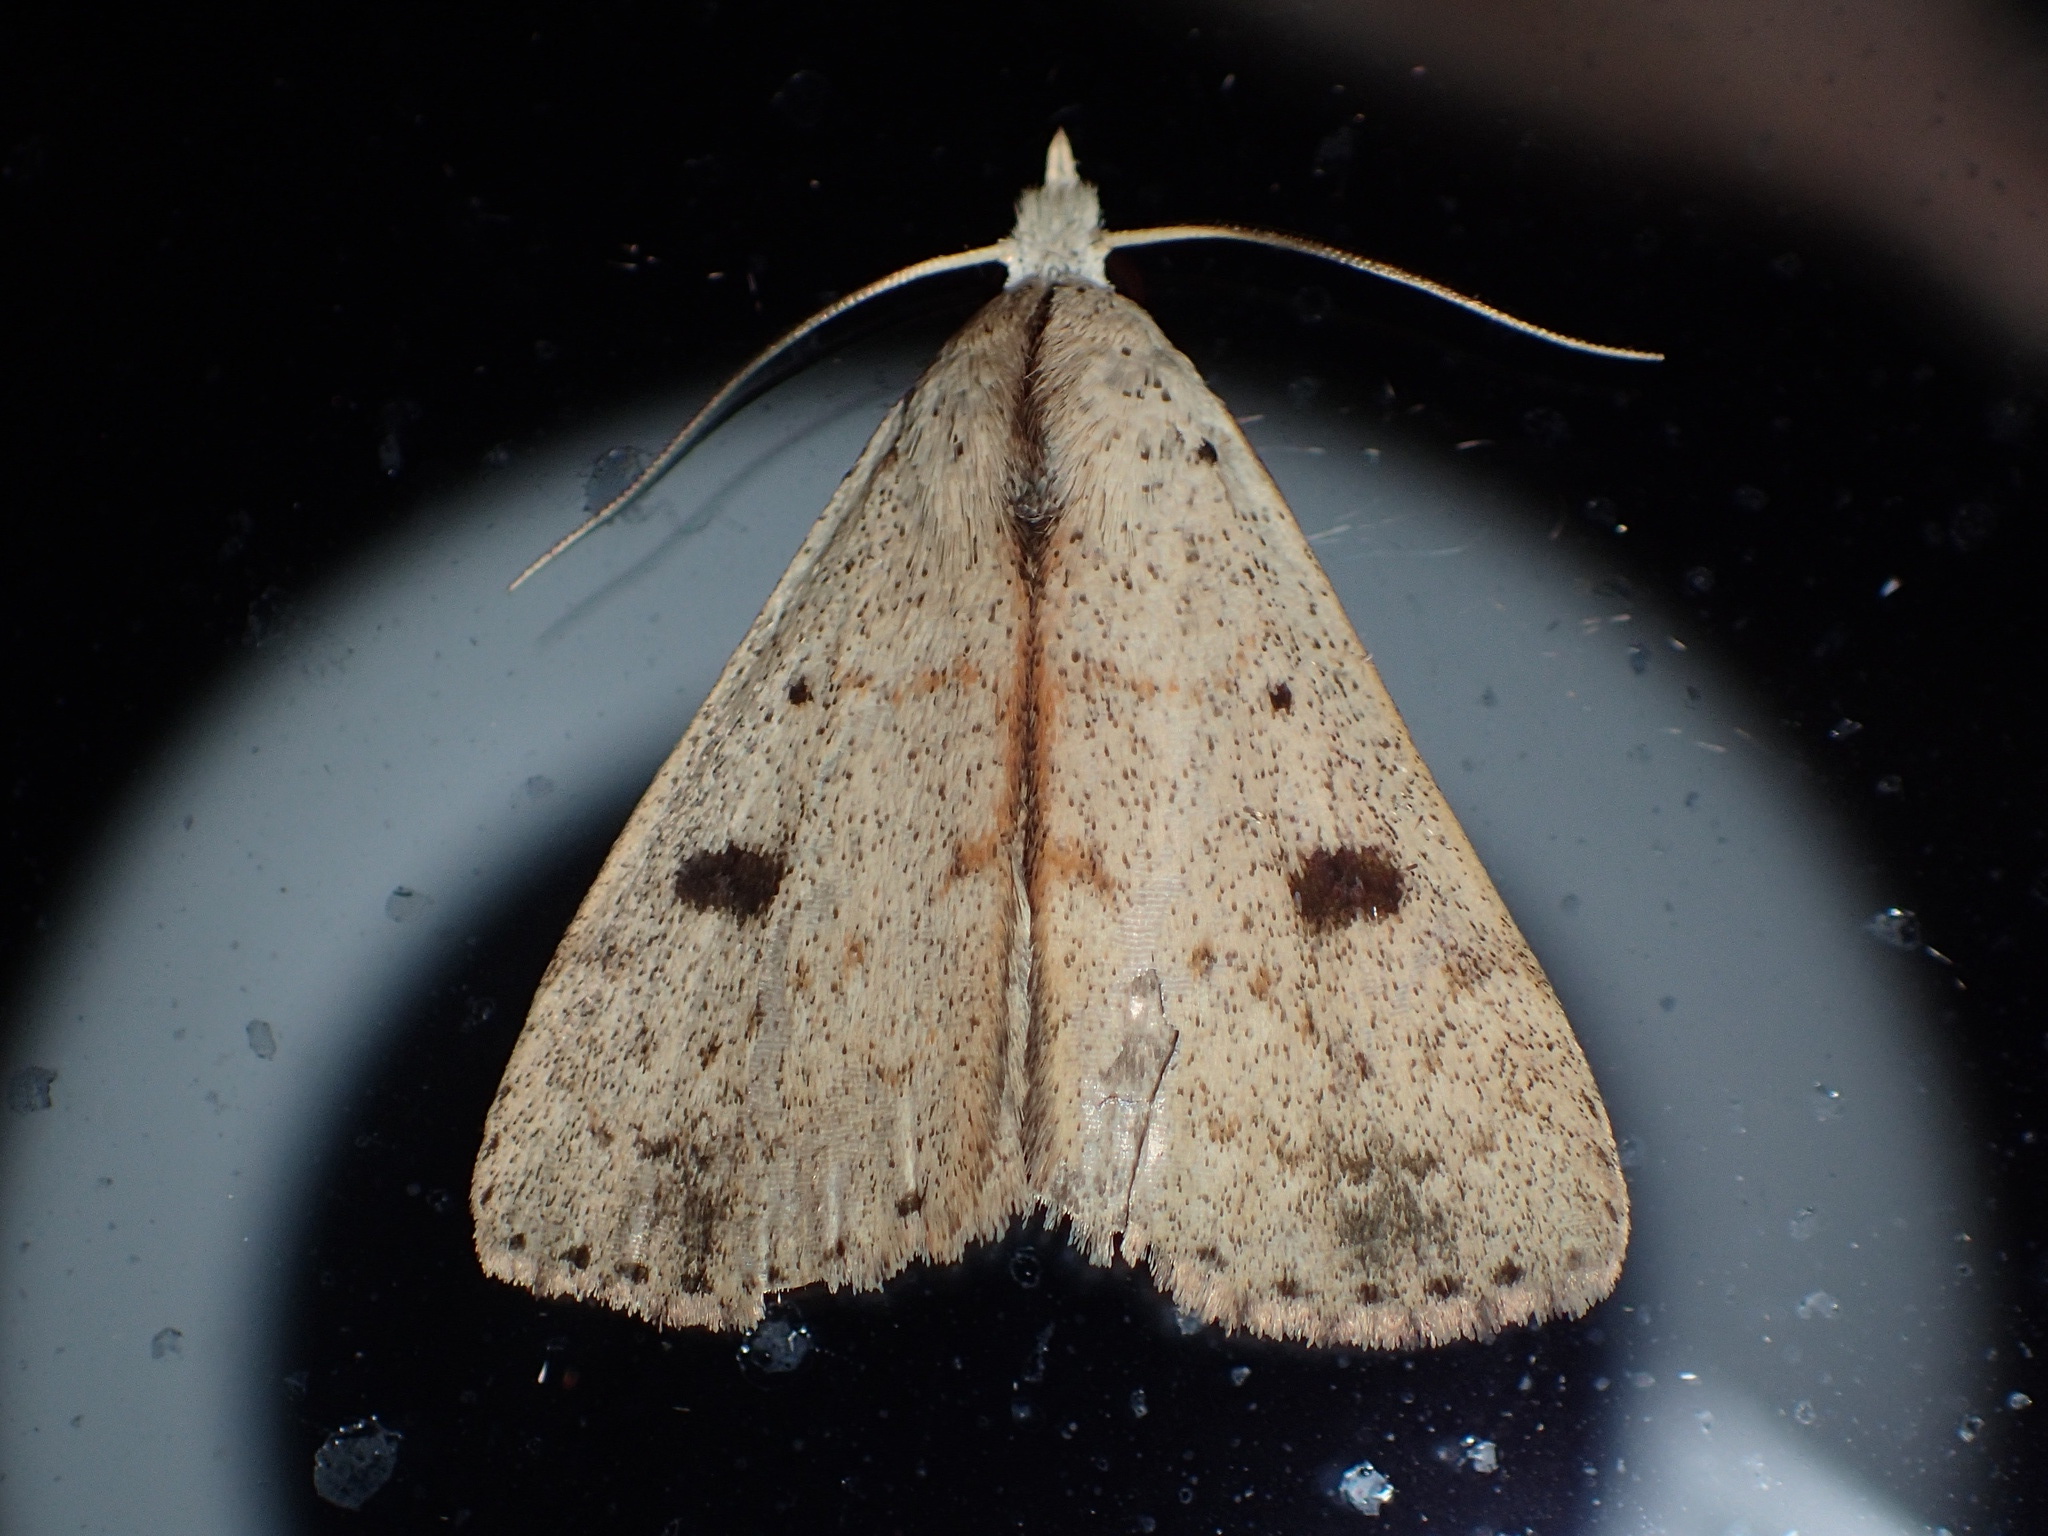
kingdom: Animalia
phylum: Arthropoda
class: Insecta
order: Lepidoptera
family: Erebidae
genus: Scolecocampa
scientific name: Scolecocampa liburna
